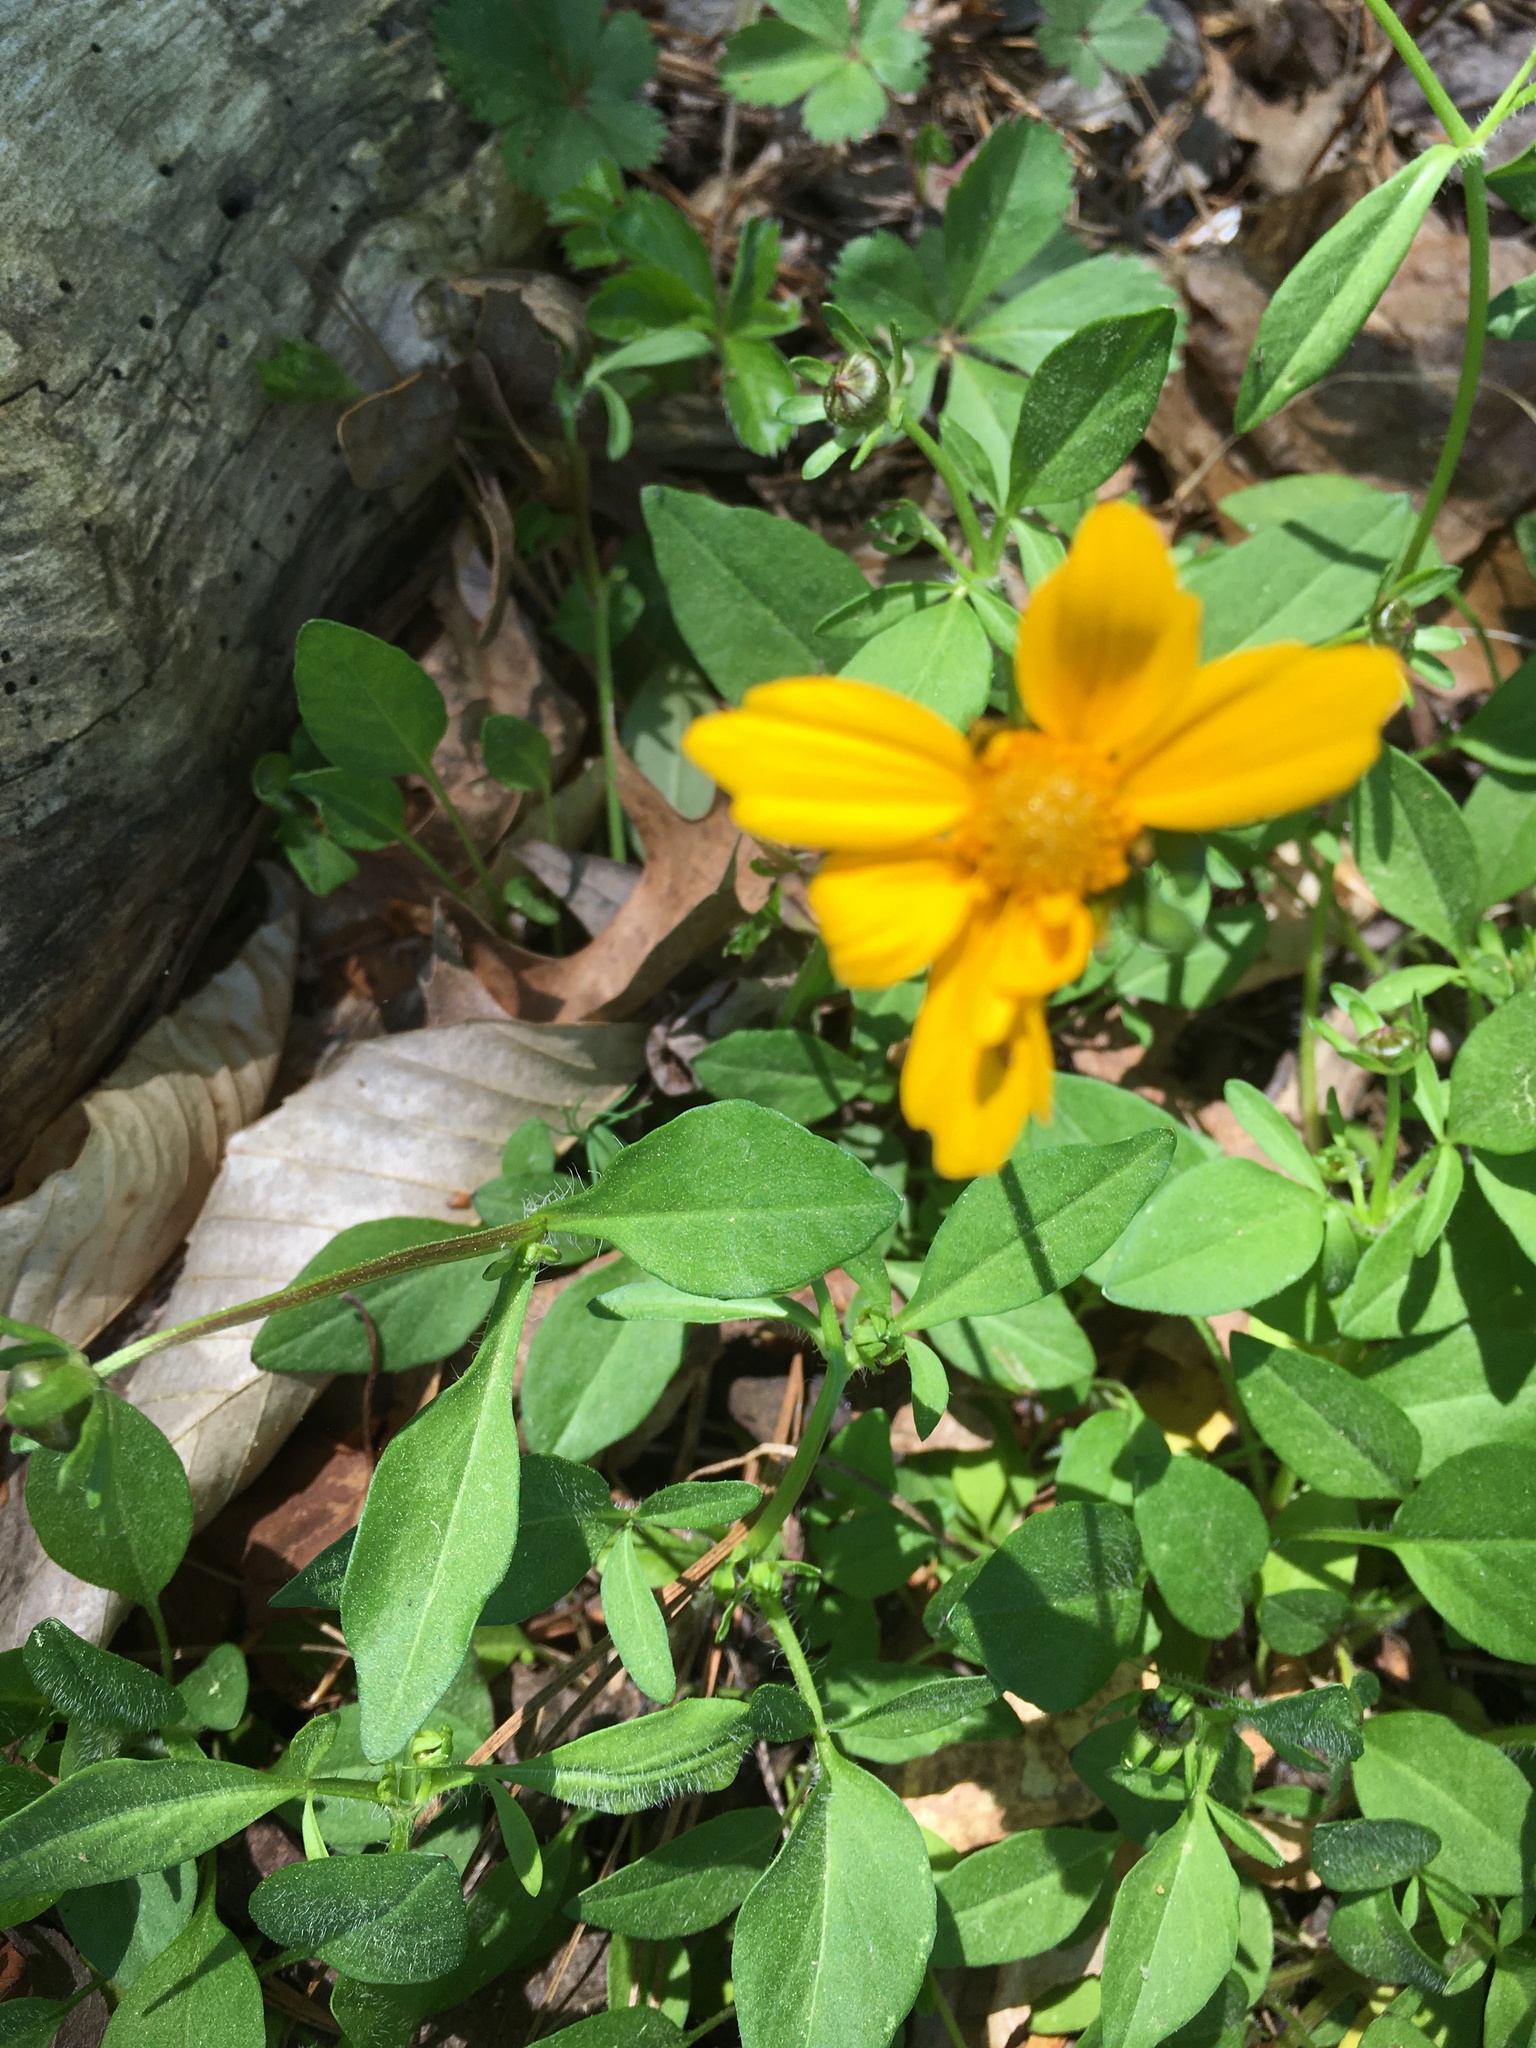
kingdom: Plantae
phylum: Tracheophyta
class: Magnoliopsida
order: Asterales
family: Asteraceae
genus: Coreopsis
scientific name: Coreopsis auriculata
